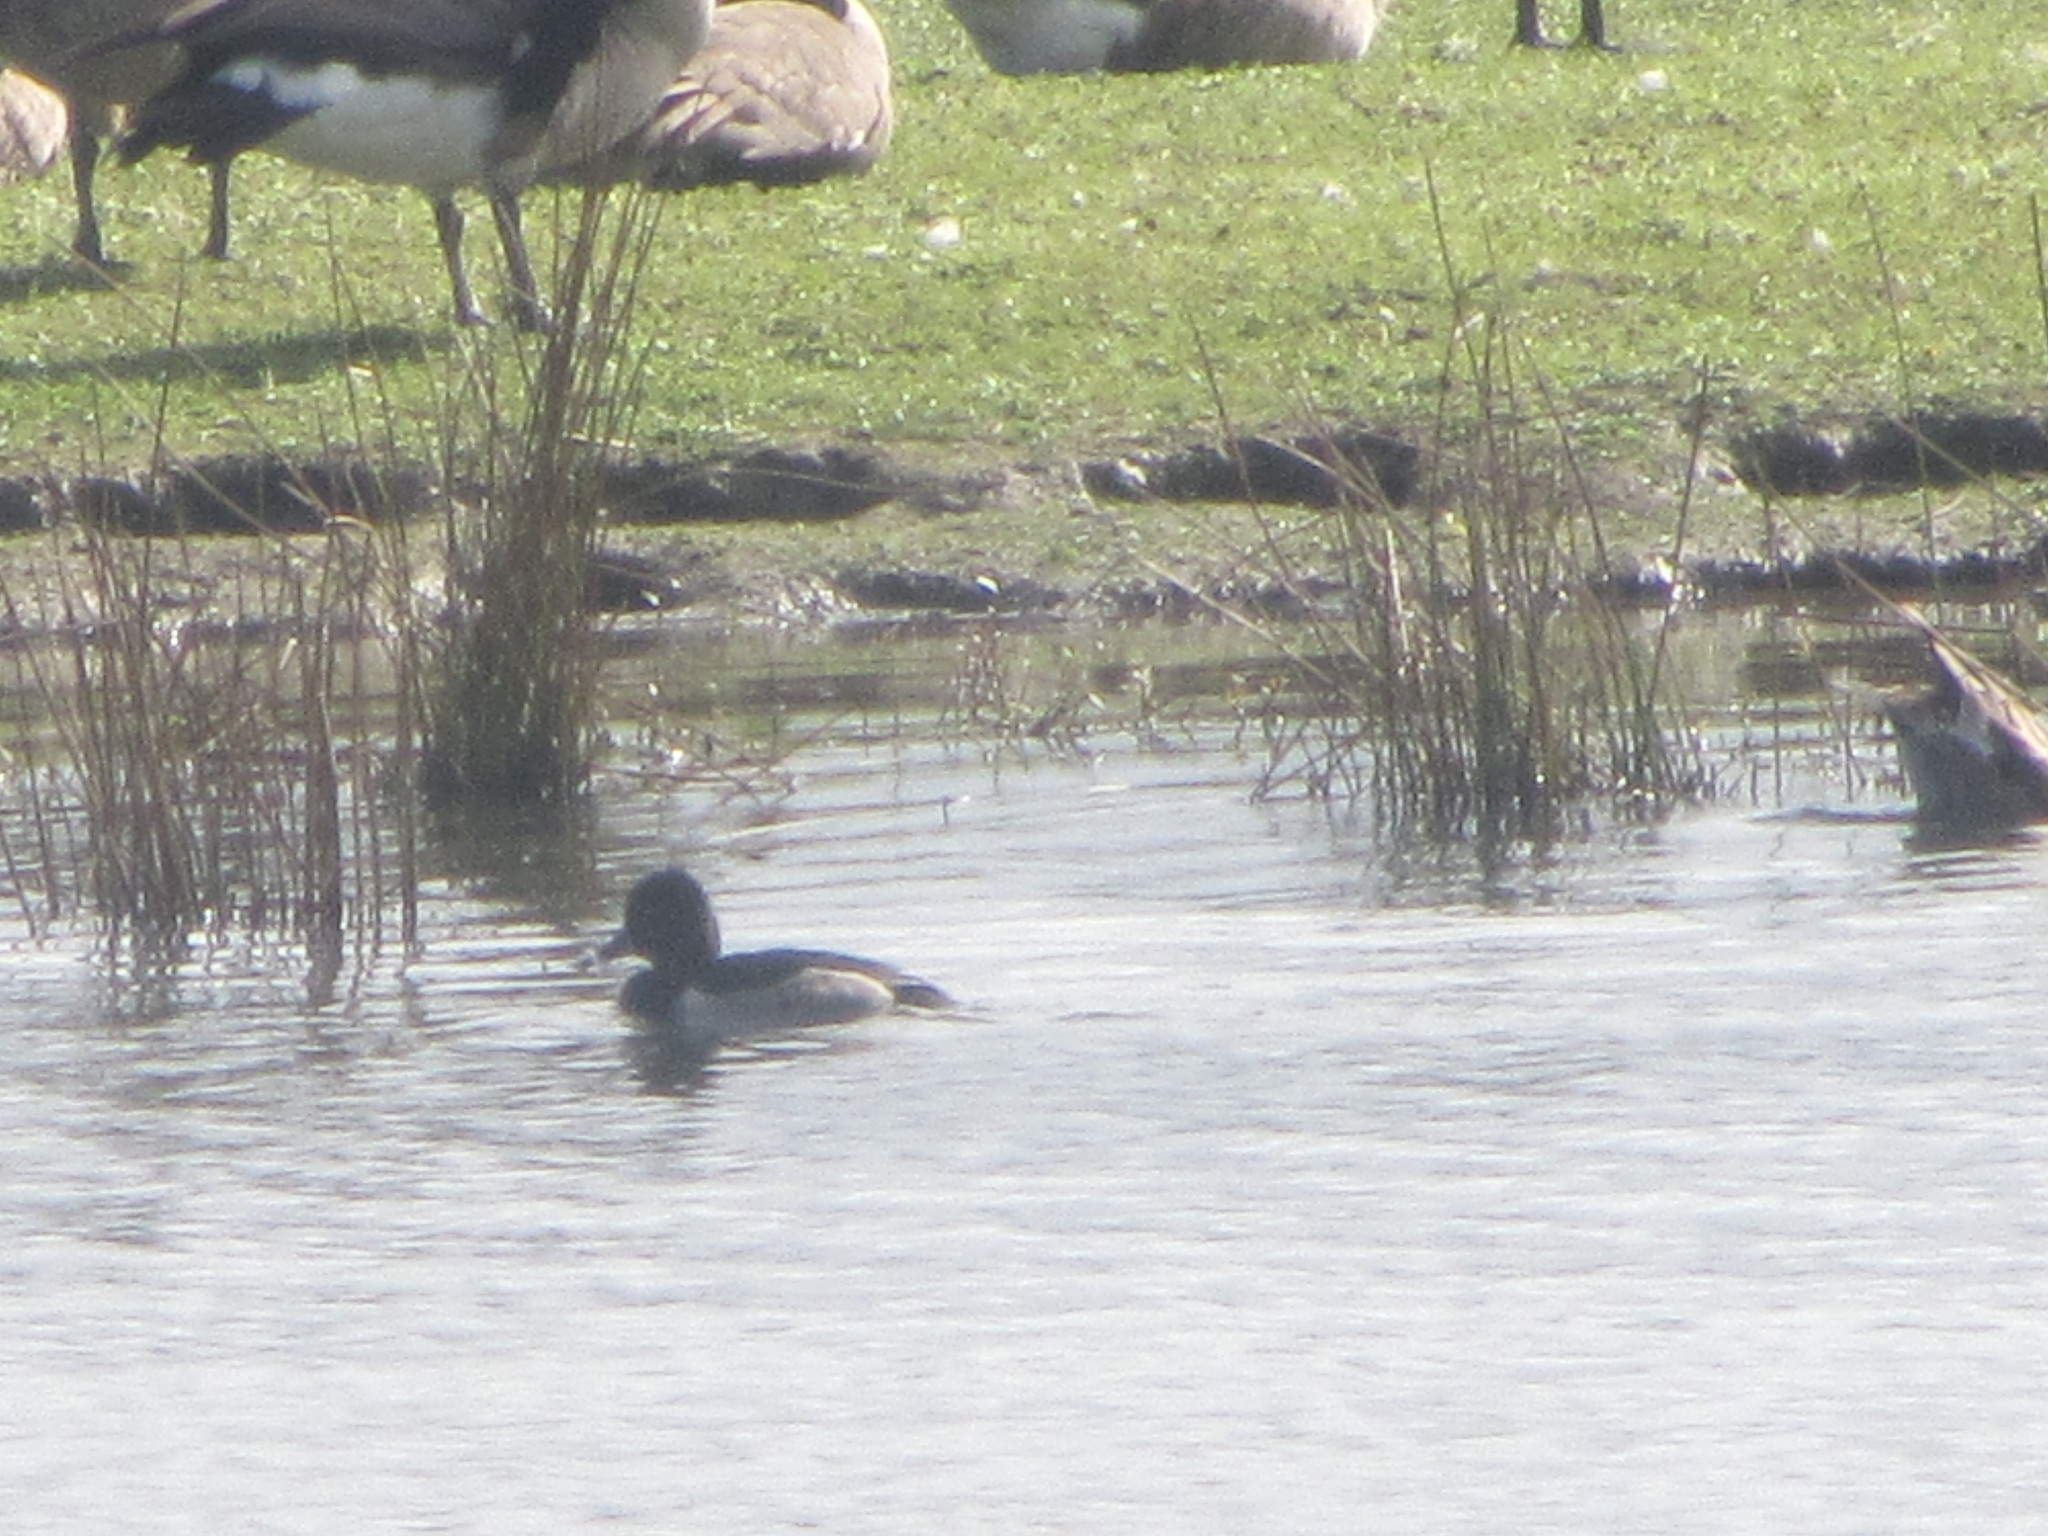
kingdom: Animalia
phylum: Chordata
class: Aves
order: Anseriformes
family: Anatidae
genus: Aythya
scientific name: Aythya collaris
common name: Ring-necked duck
